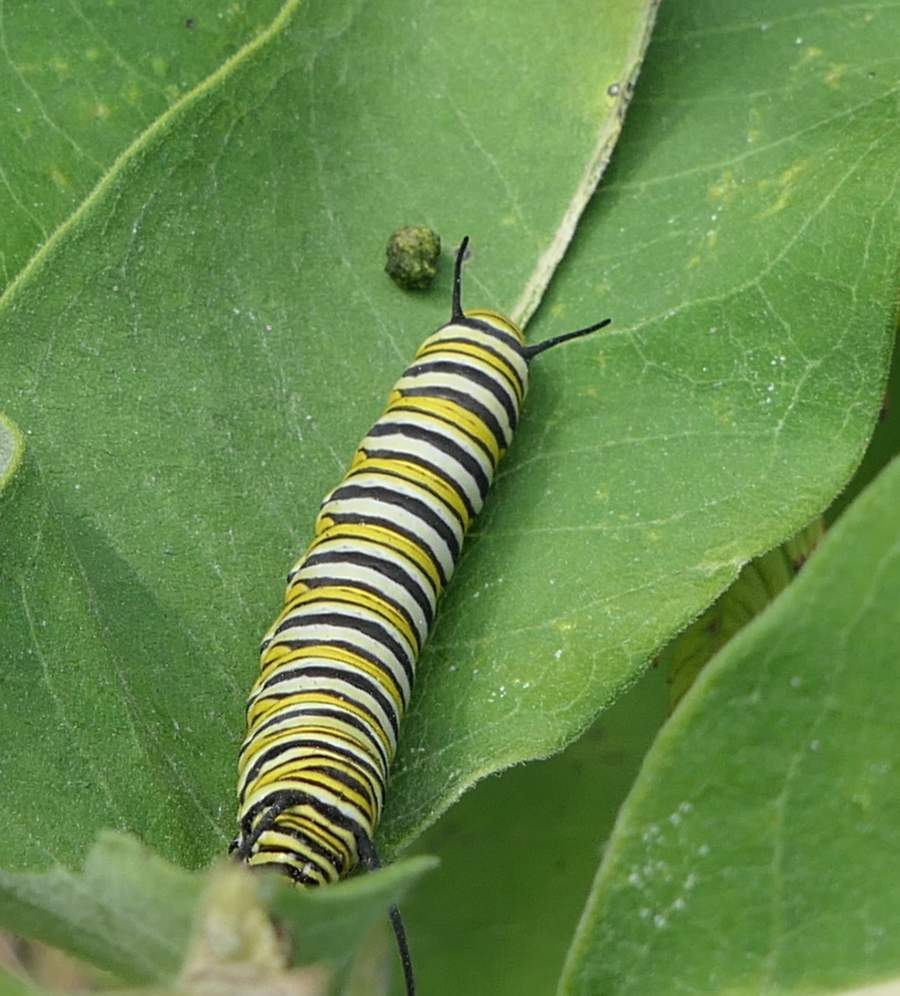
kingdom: Animalia
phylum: Arthropoda
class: Insecta
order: Lepidoptera
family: Nymphalidae
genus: Danaus
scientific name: Danaus plexippus
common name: Monarch
